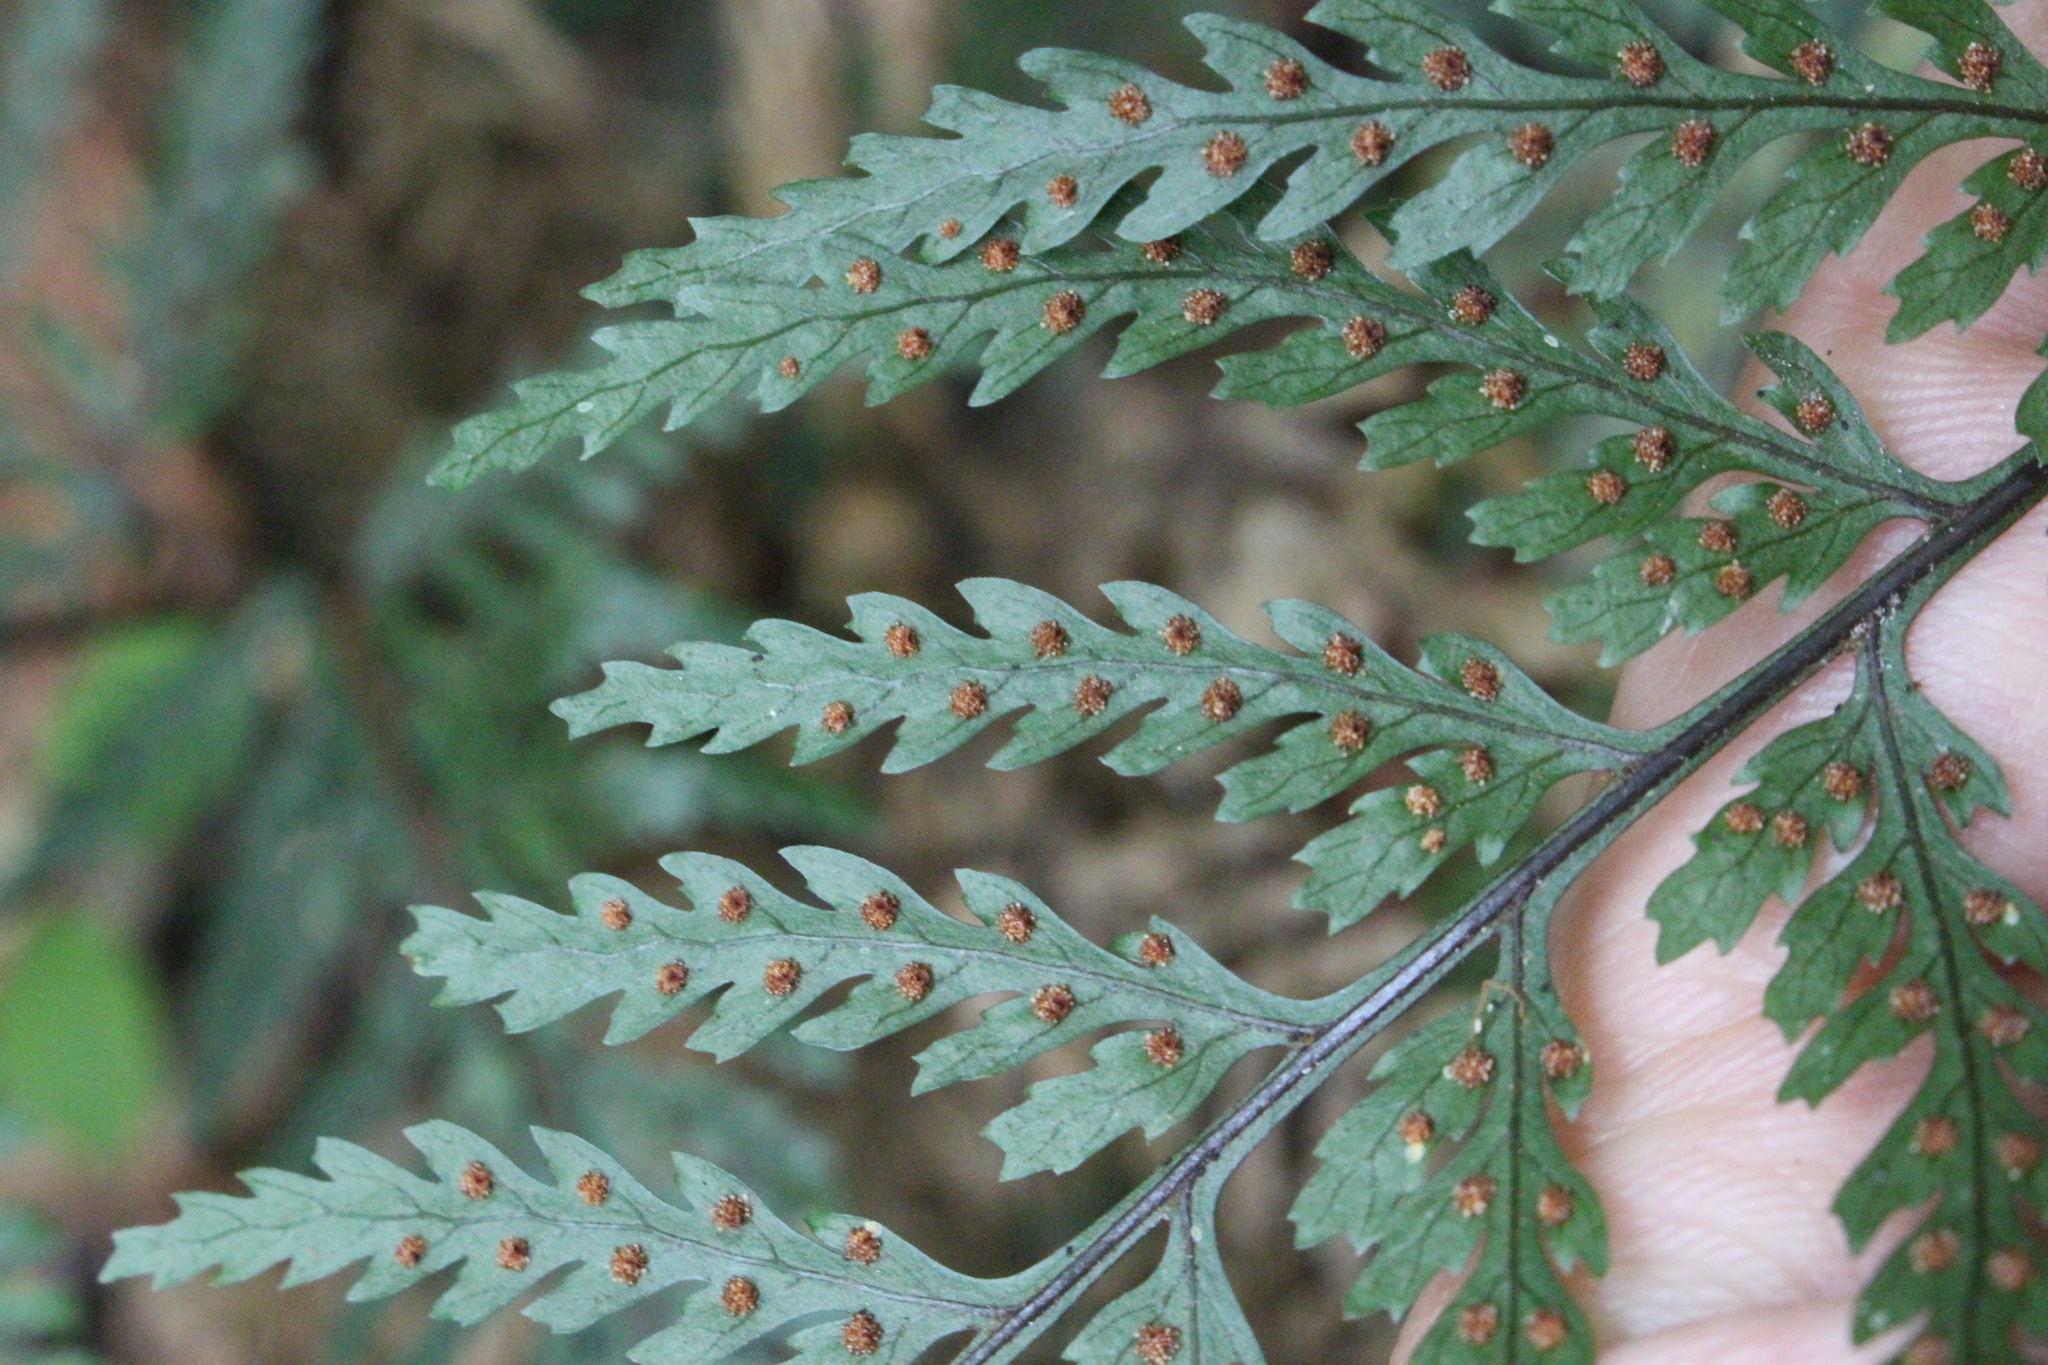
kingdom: Plantae
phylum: Tracheophyta
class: Polypodiopsida
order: Polypodiales
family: Dryopteridaceae
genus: Parapolystichum
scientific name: Parapolystichum glabellum
